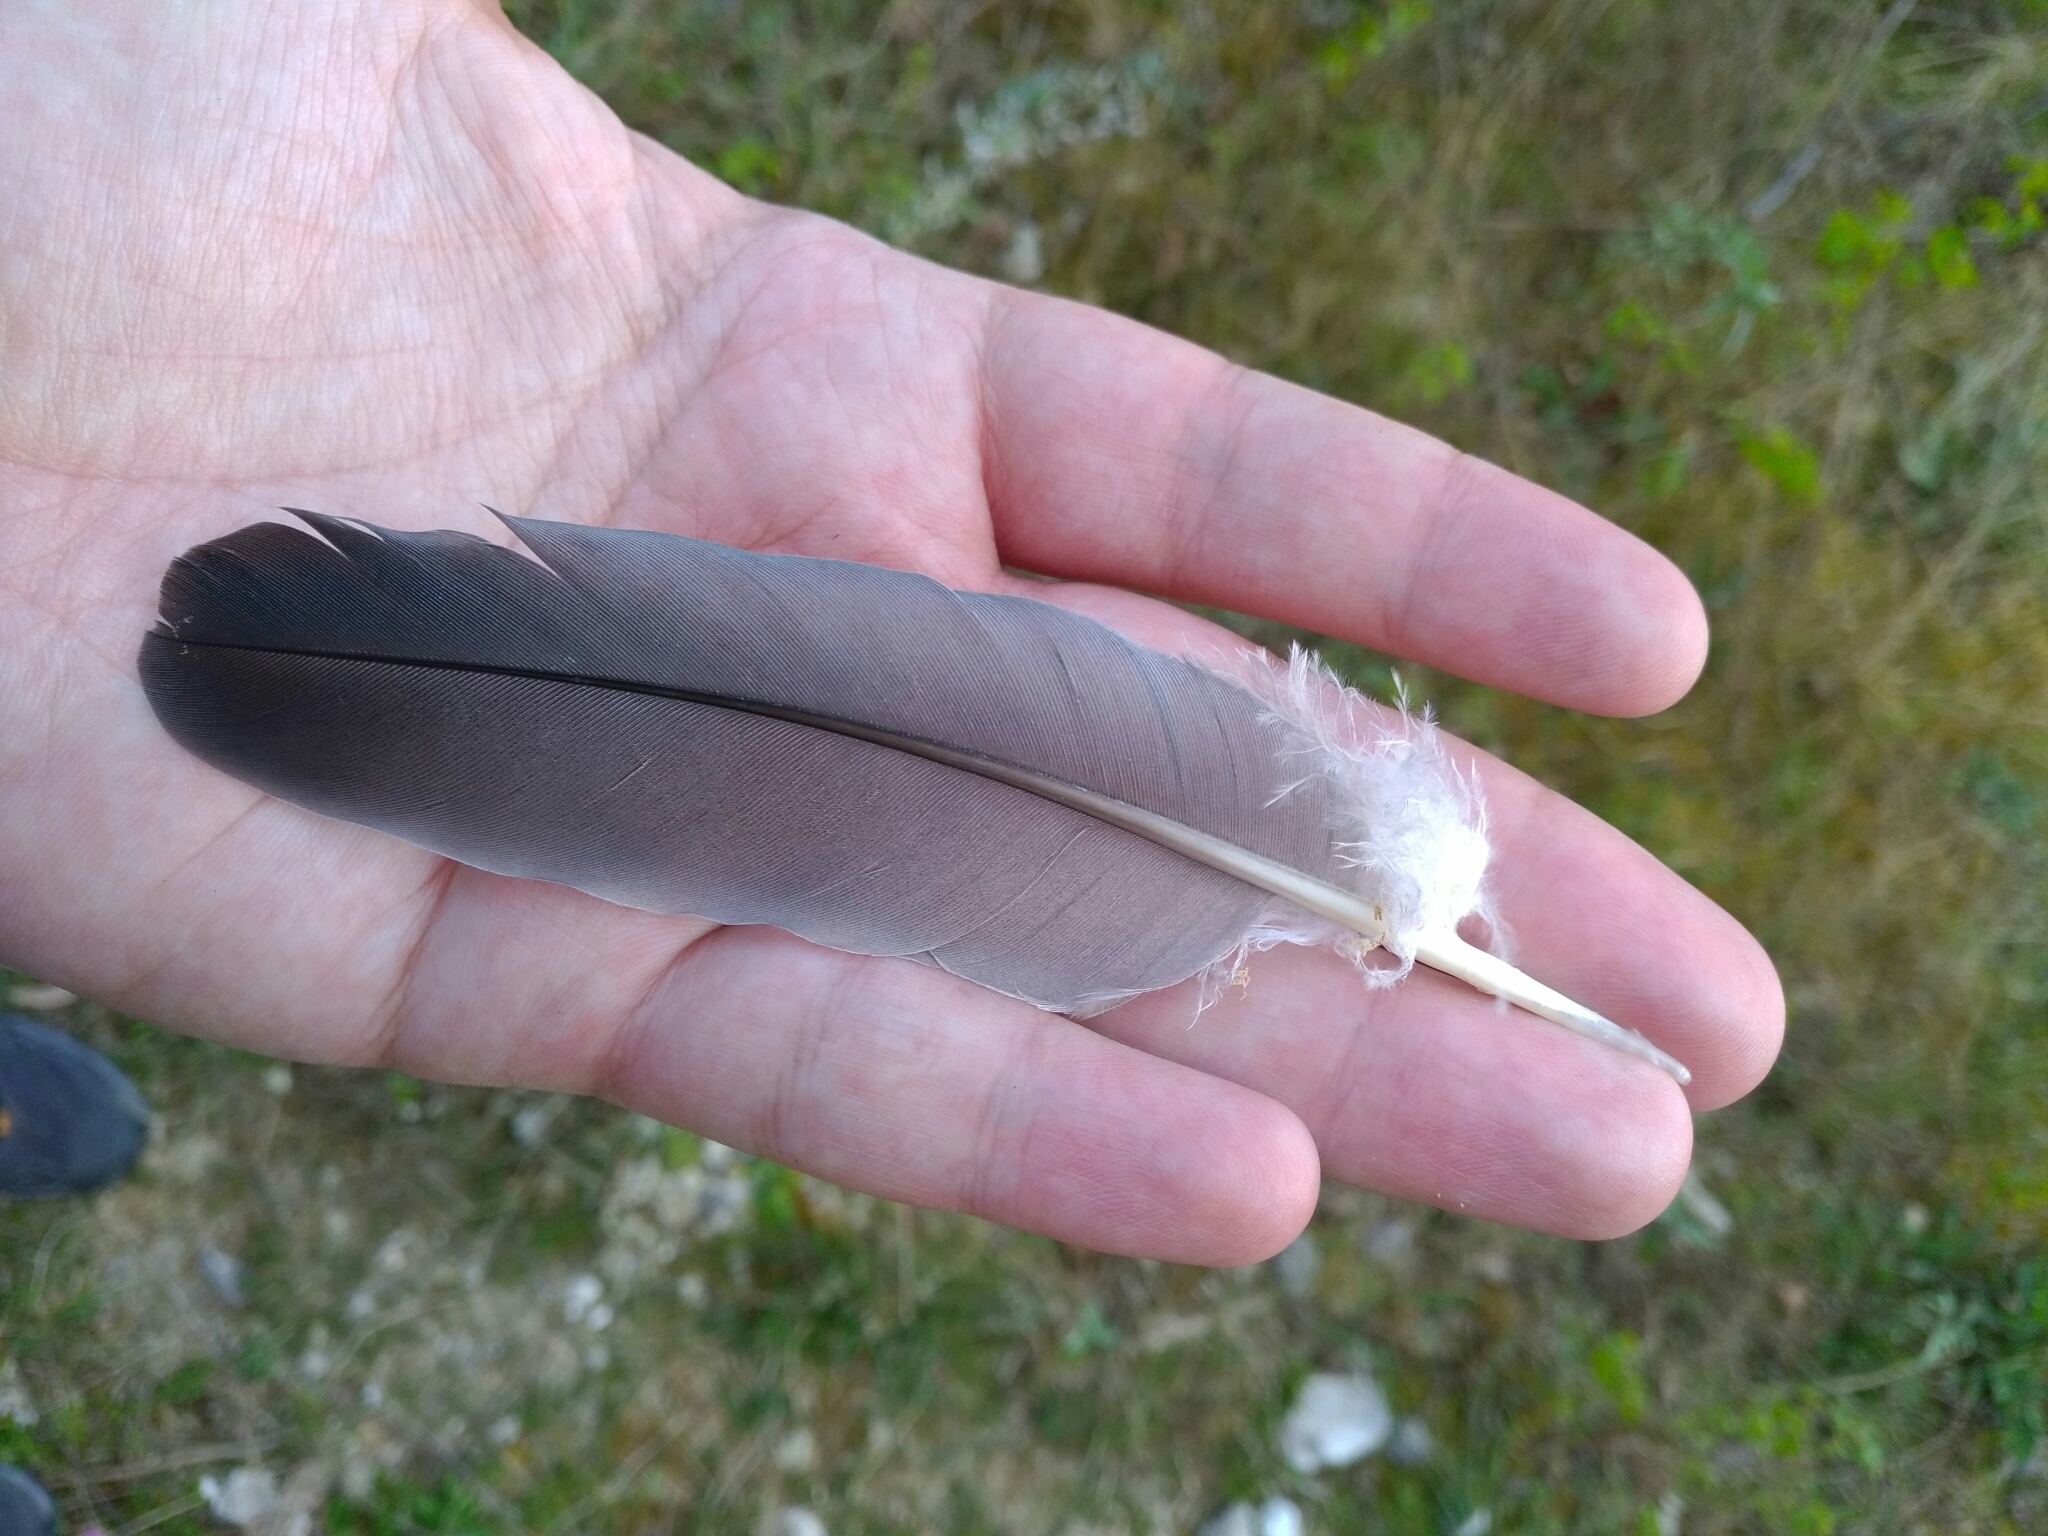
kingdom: Animalia
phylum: Chordata
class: Aves
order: Columbiformes
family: Columbidae
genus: Columba
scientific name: Columba palumbus
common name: Common wood pigeon
